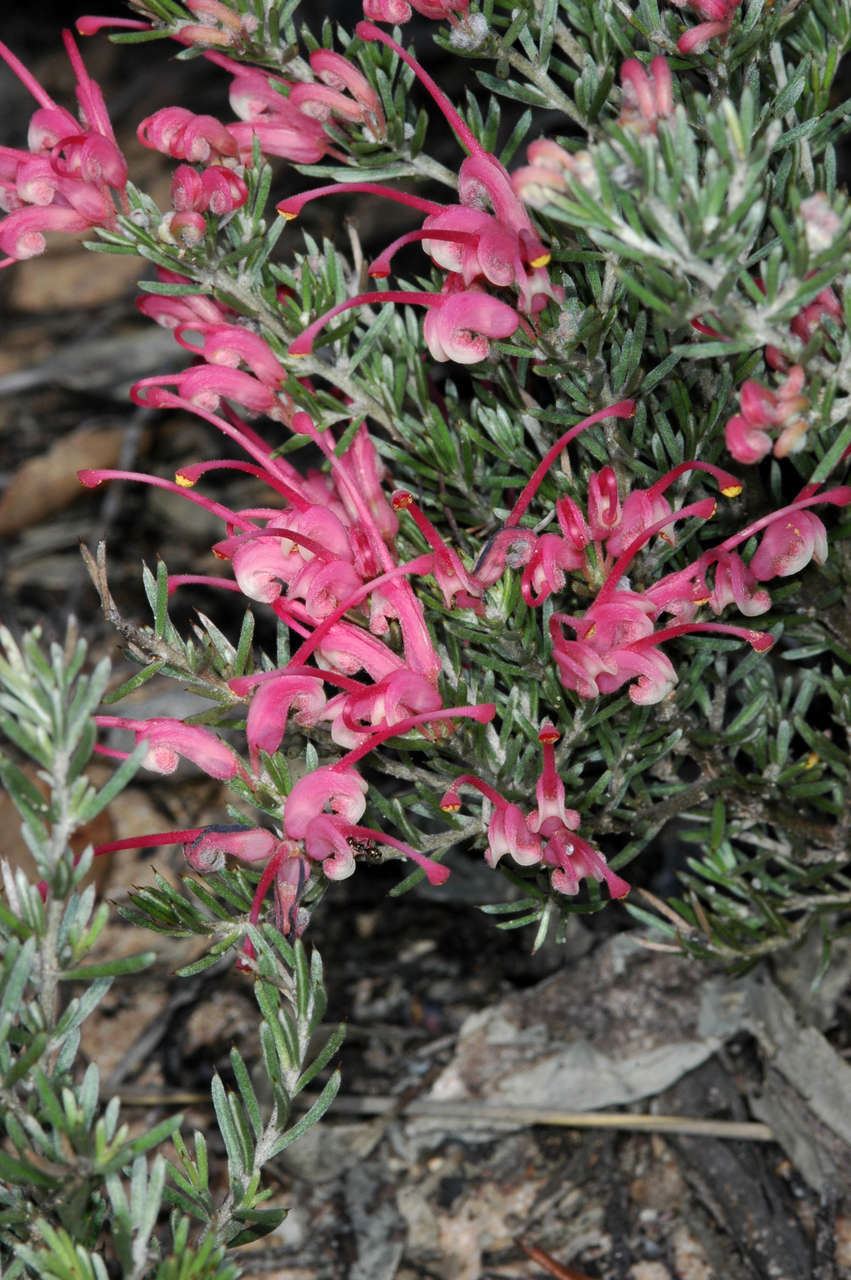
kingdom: Plantae
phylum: Tracheophyta
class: Magnoliopsida
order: Proteales
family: Proteaceae
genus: Grevillea
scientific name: Grevillea lavandulacea
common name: Lavender grevillea
